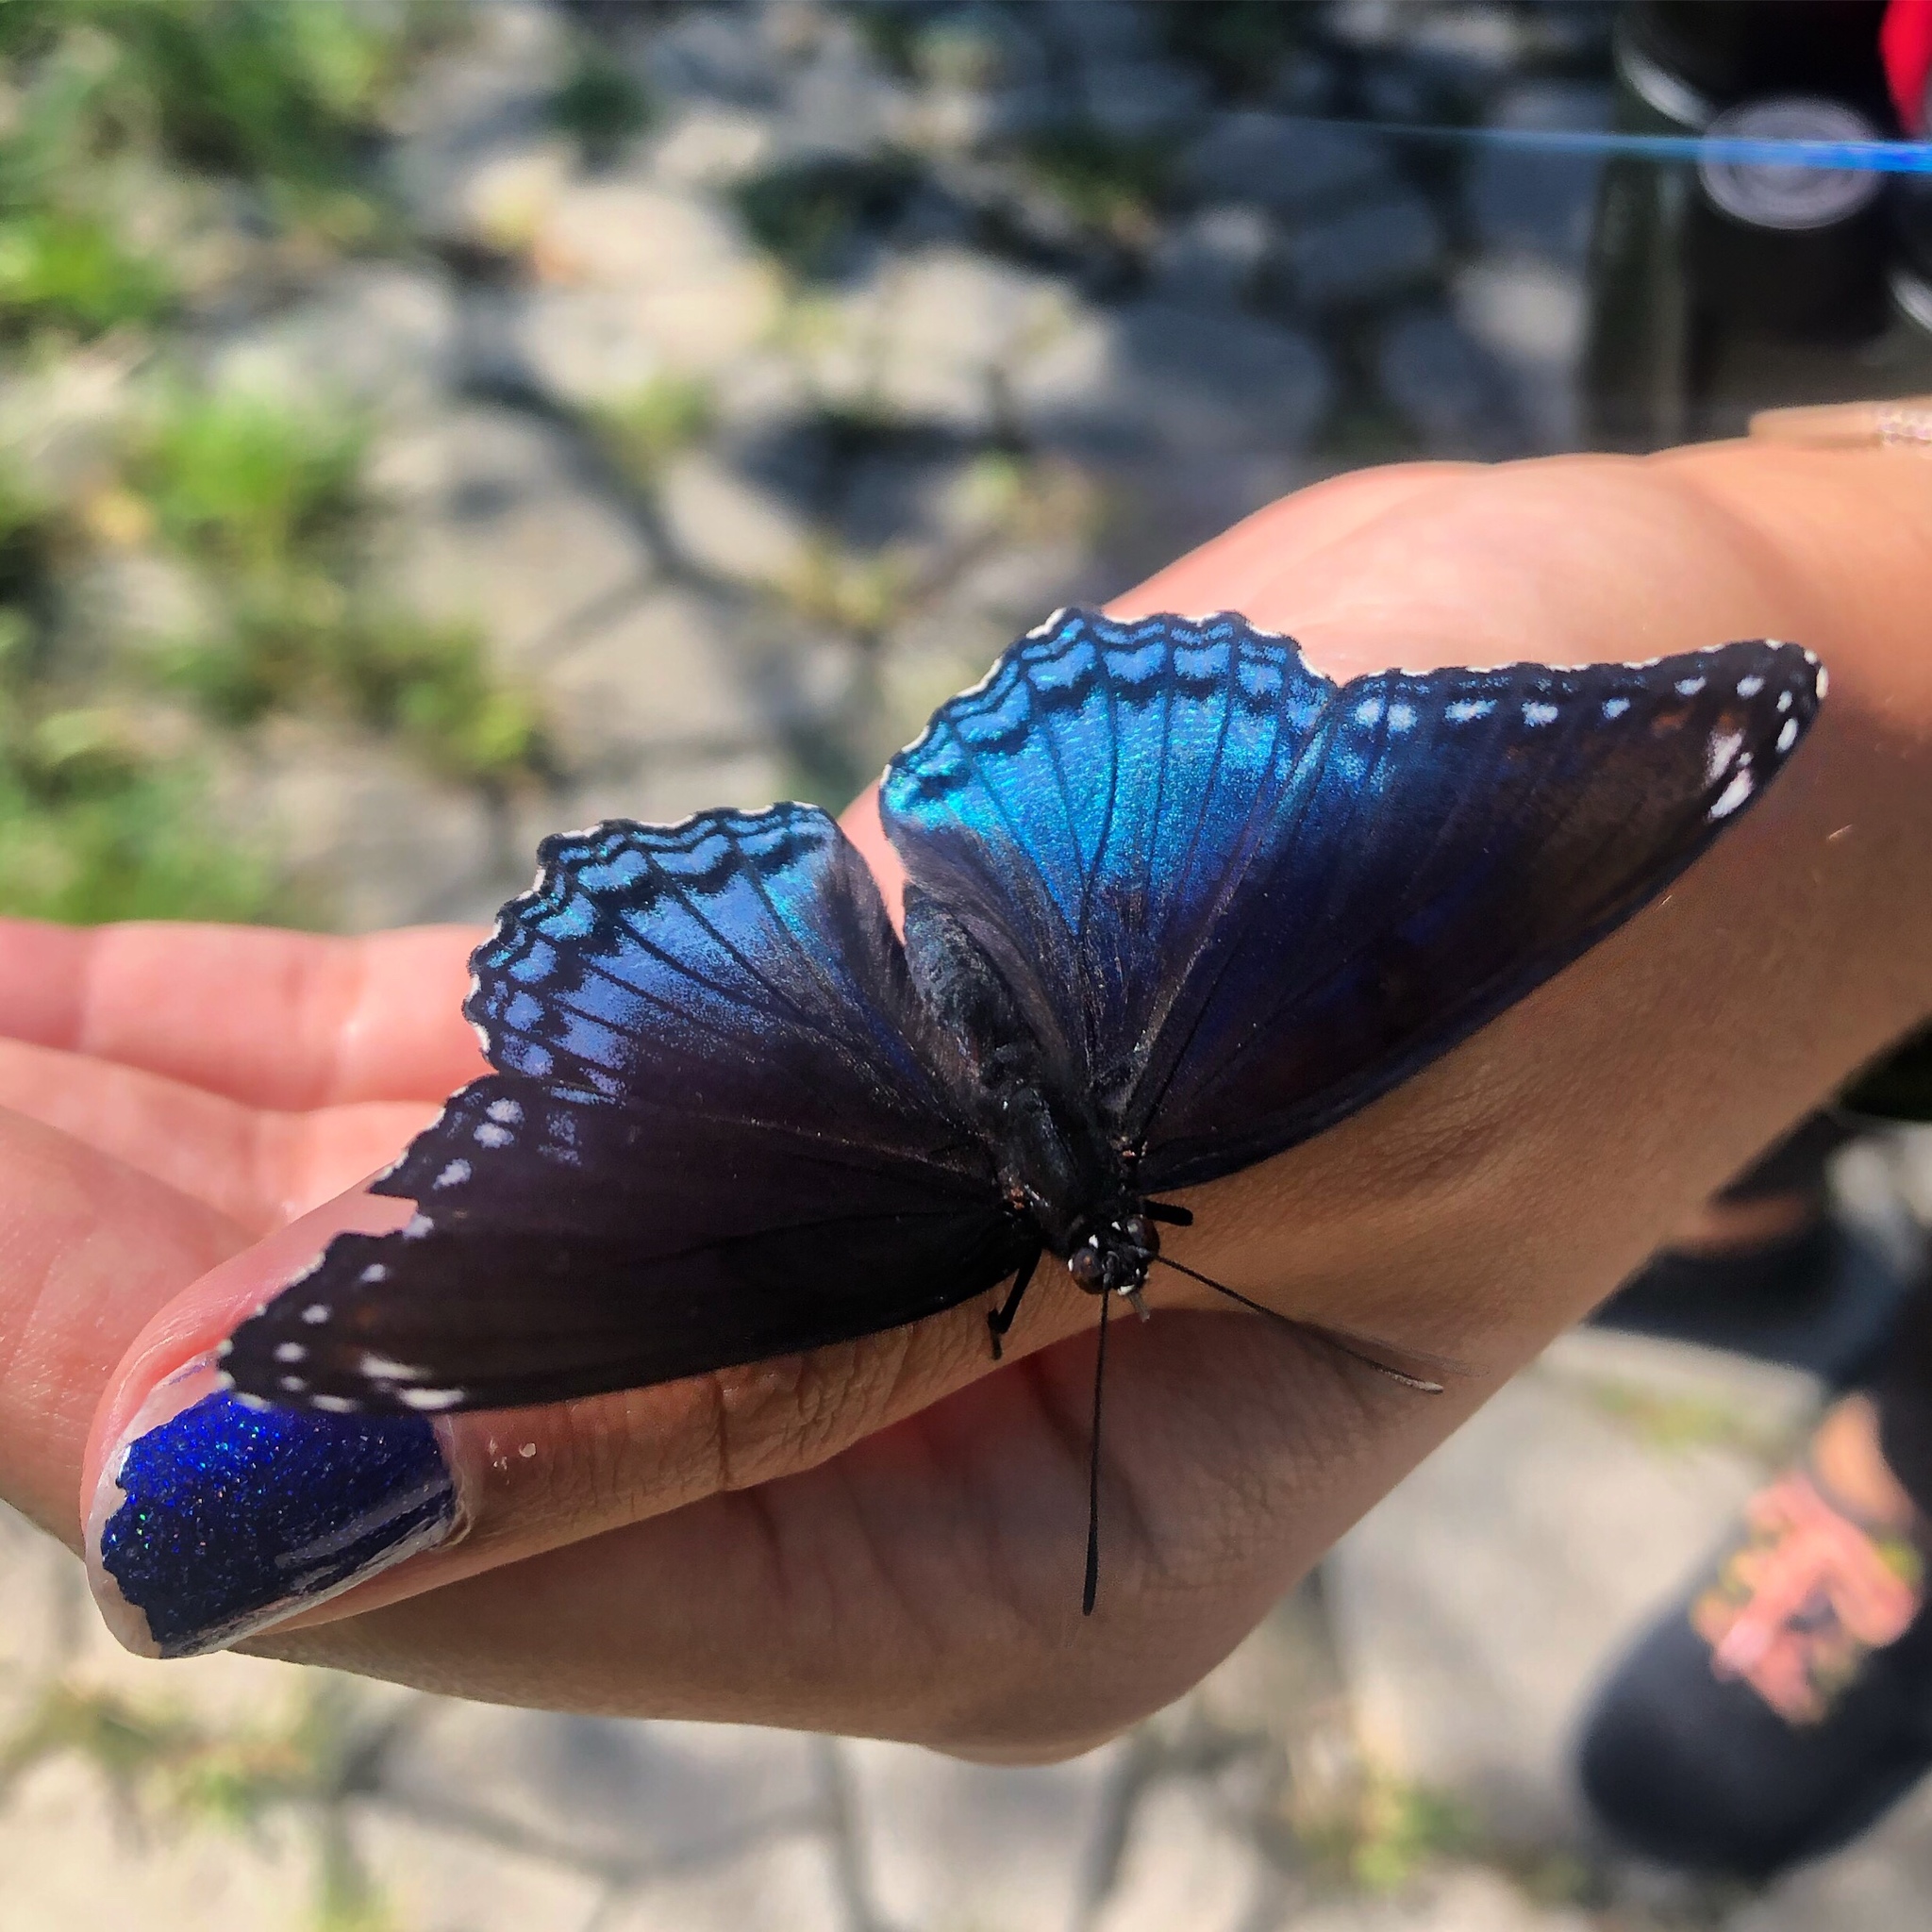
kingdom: Animalia
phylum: Arthropoda
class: Insecta
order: Lepidoptera
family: Nymphalidae
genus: Limenitis
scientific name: Limenitis arthemis
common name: Red-spotted admiral
